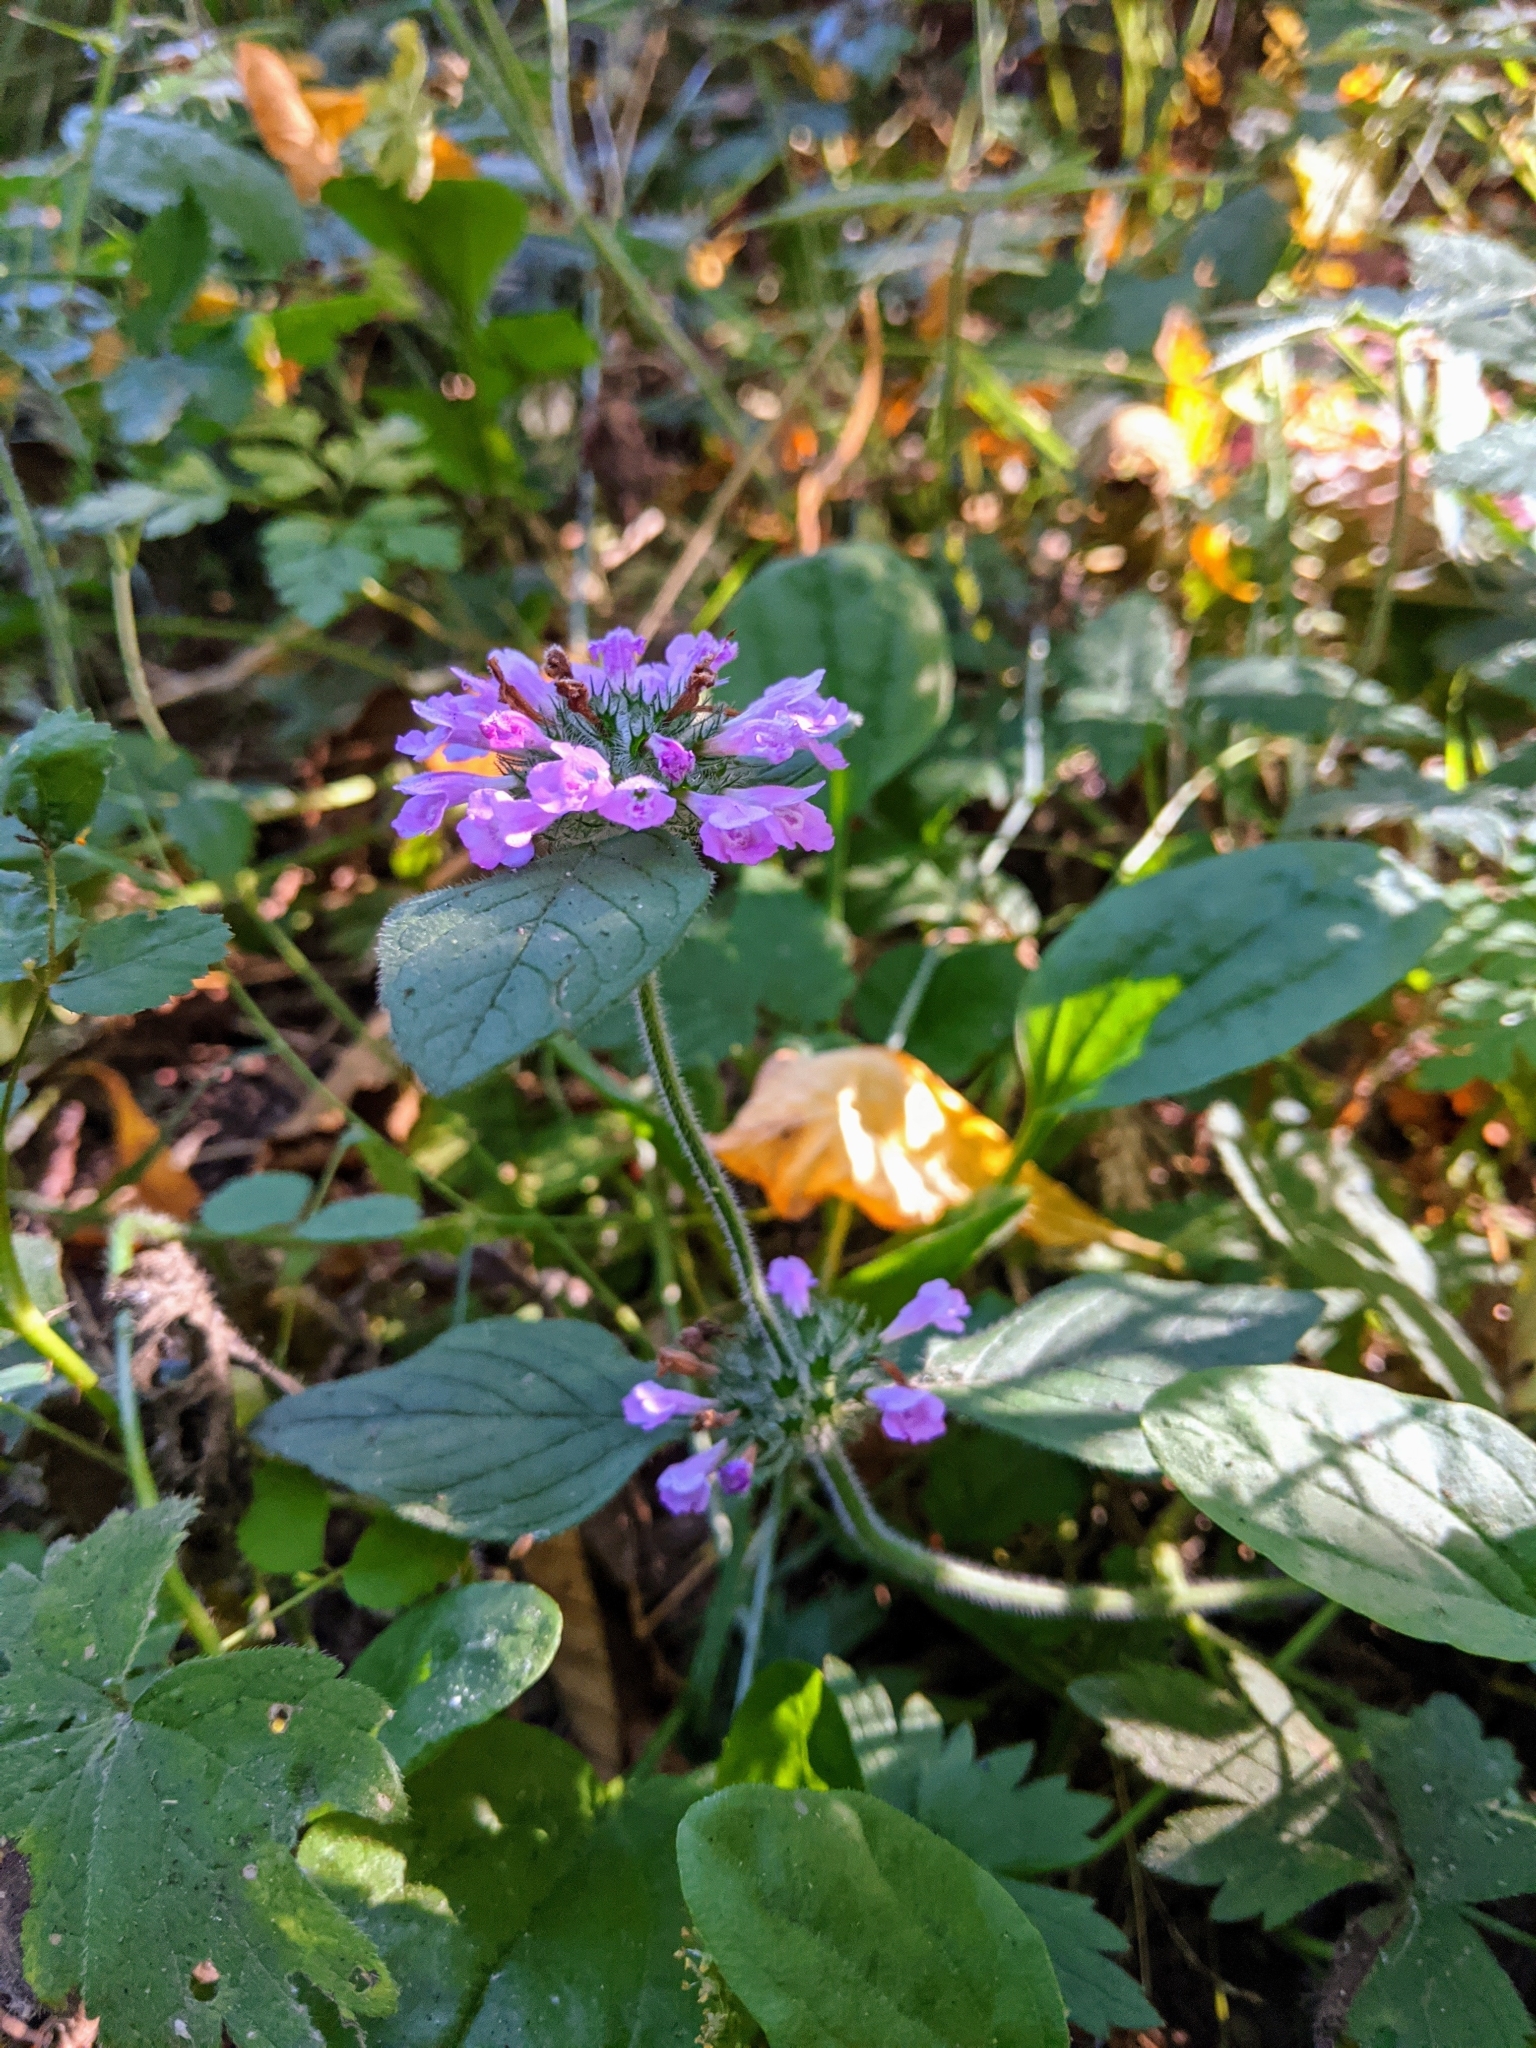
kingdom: Plantae
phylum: Tracheophyta
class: Magnoliopsida
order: Lamiales
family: Lamiaceae
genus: Clinopodium
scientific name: Clinopodium vulgare
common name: Wild basil
